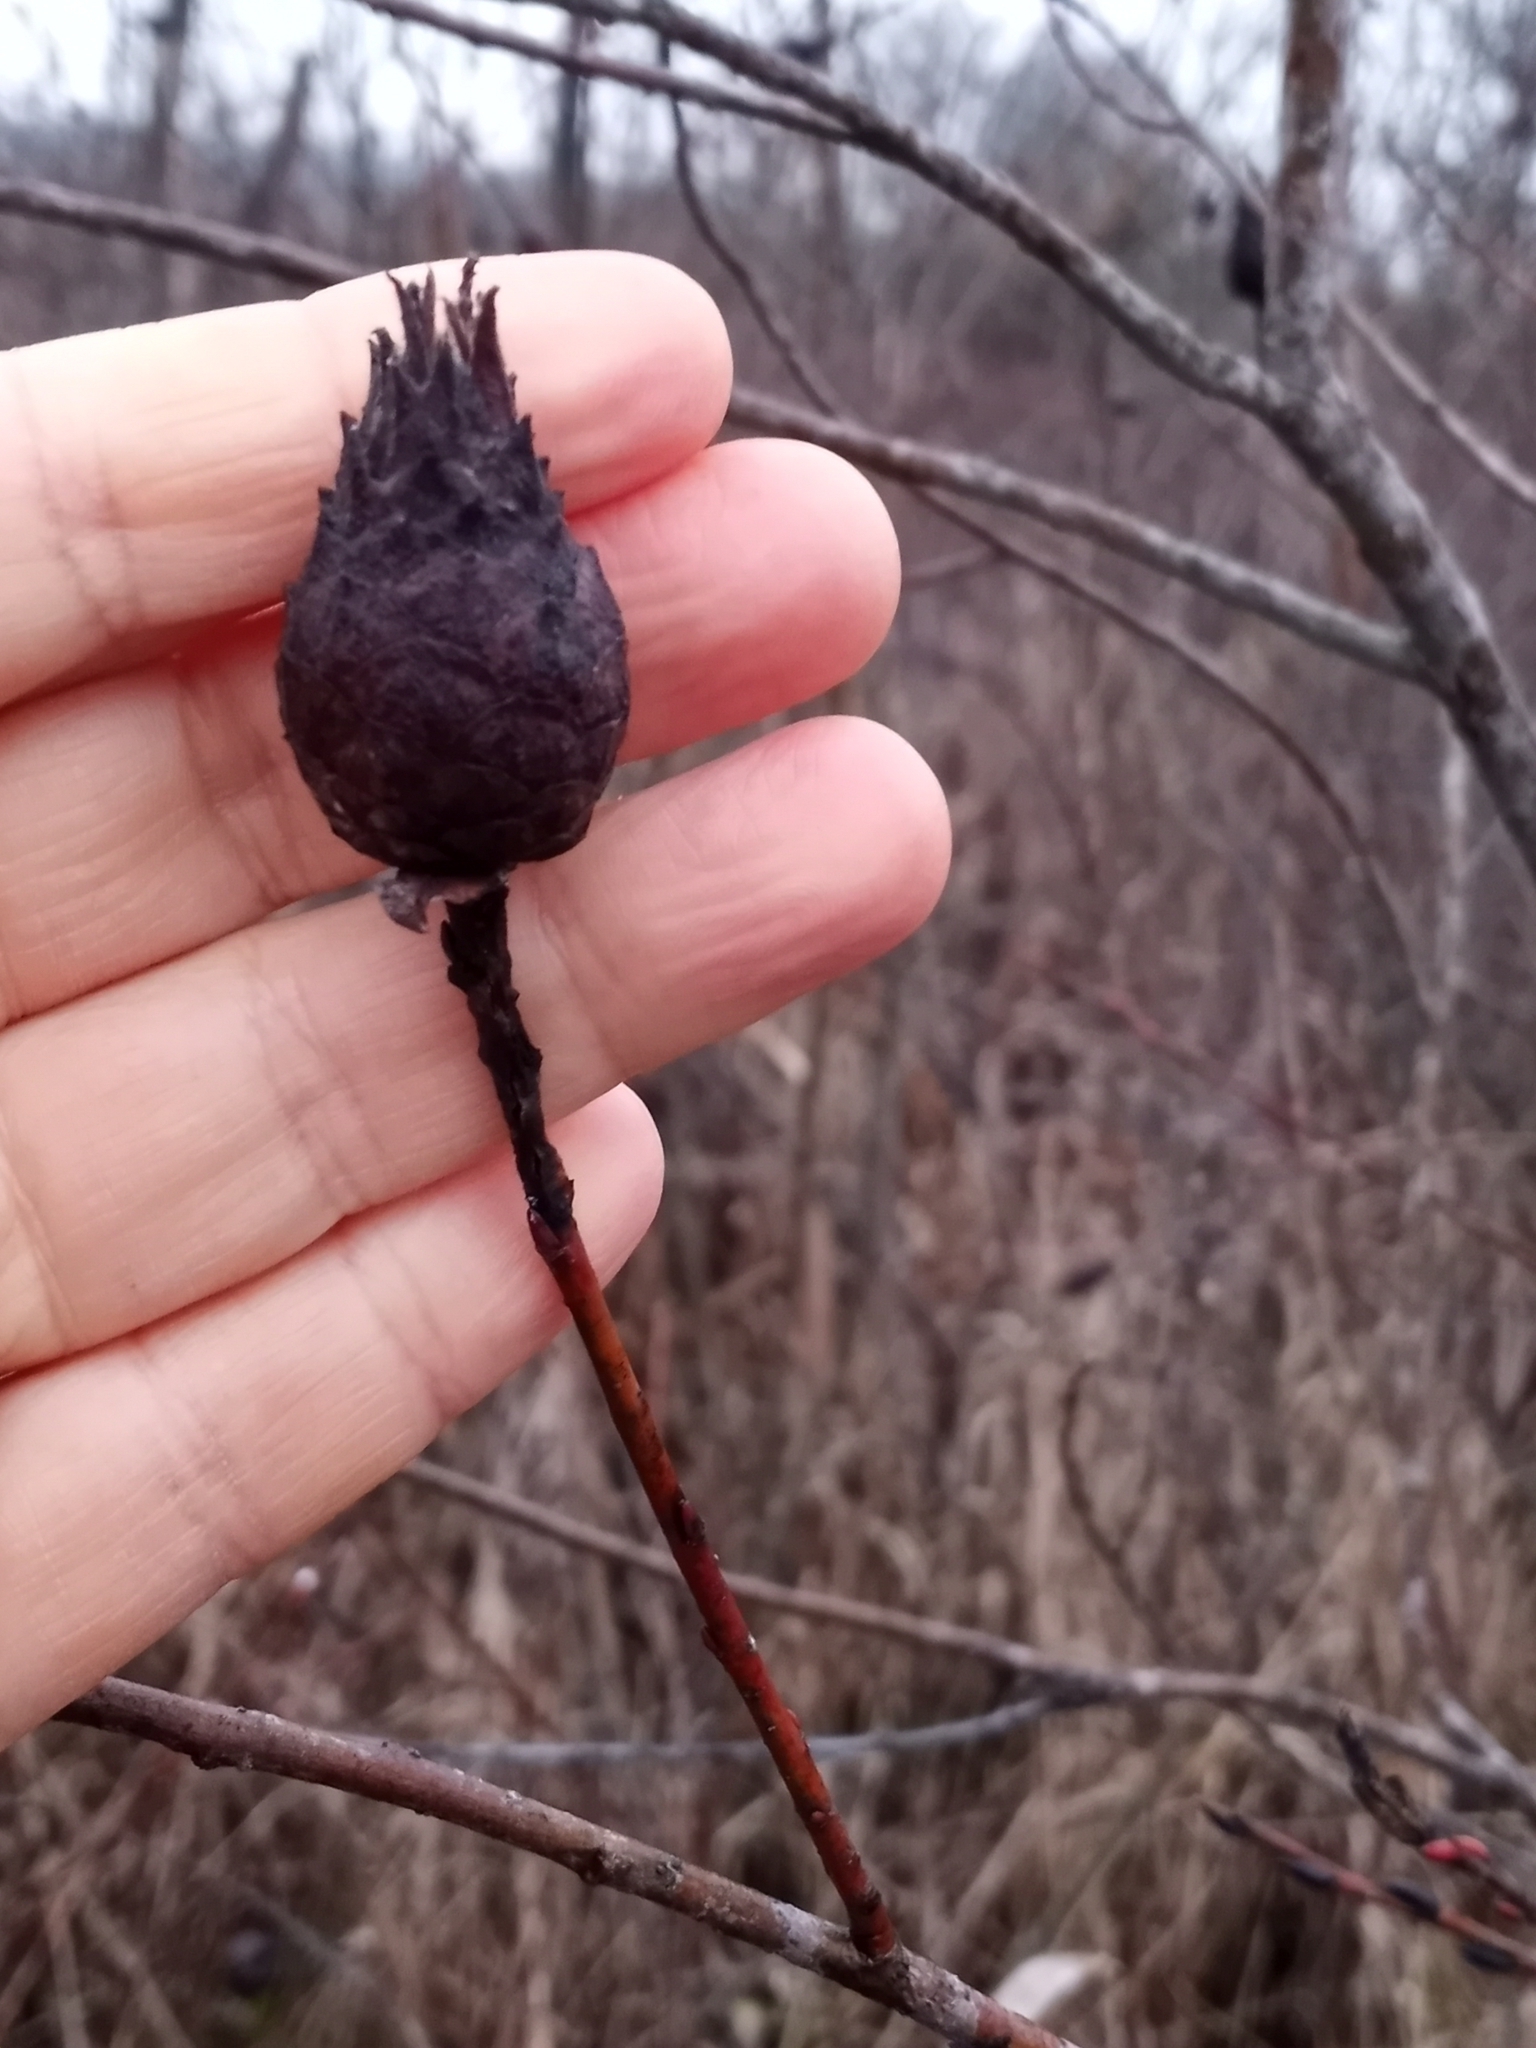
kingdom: Animalia
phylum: Arthropoda
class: Insecta
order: Diptera
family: Cecidomyiidae
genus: Rabdophaga
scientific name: Rabdophaga strobiloides
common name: Willow pinecone gall midge
